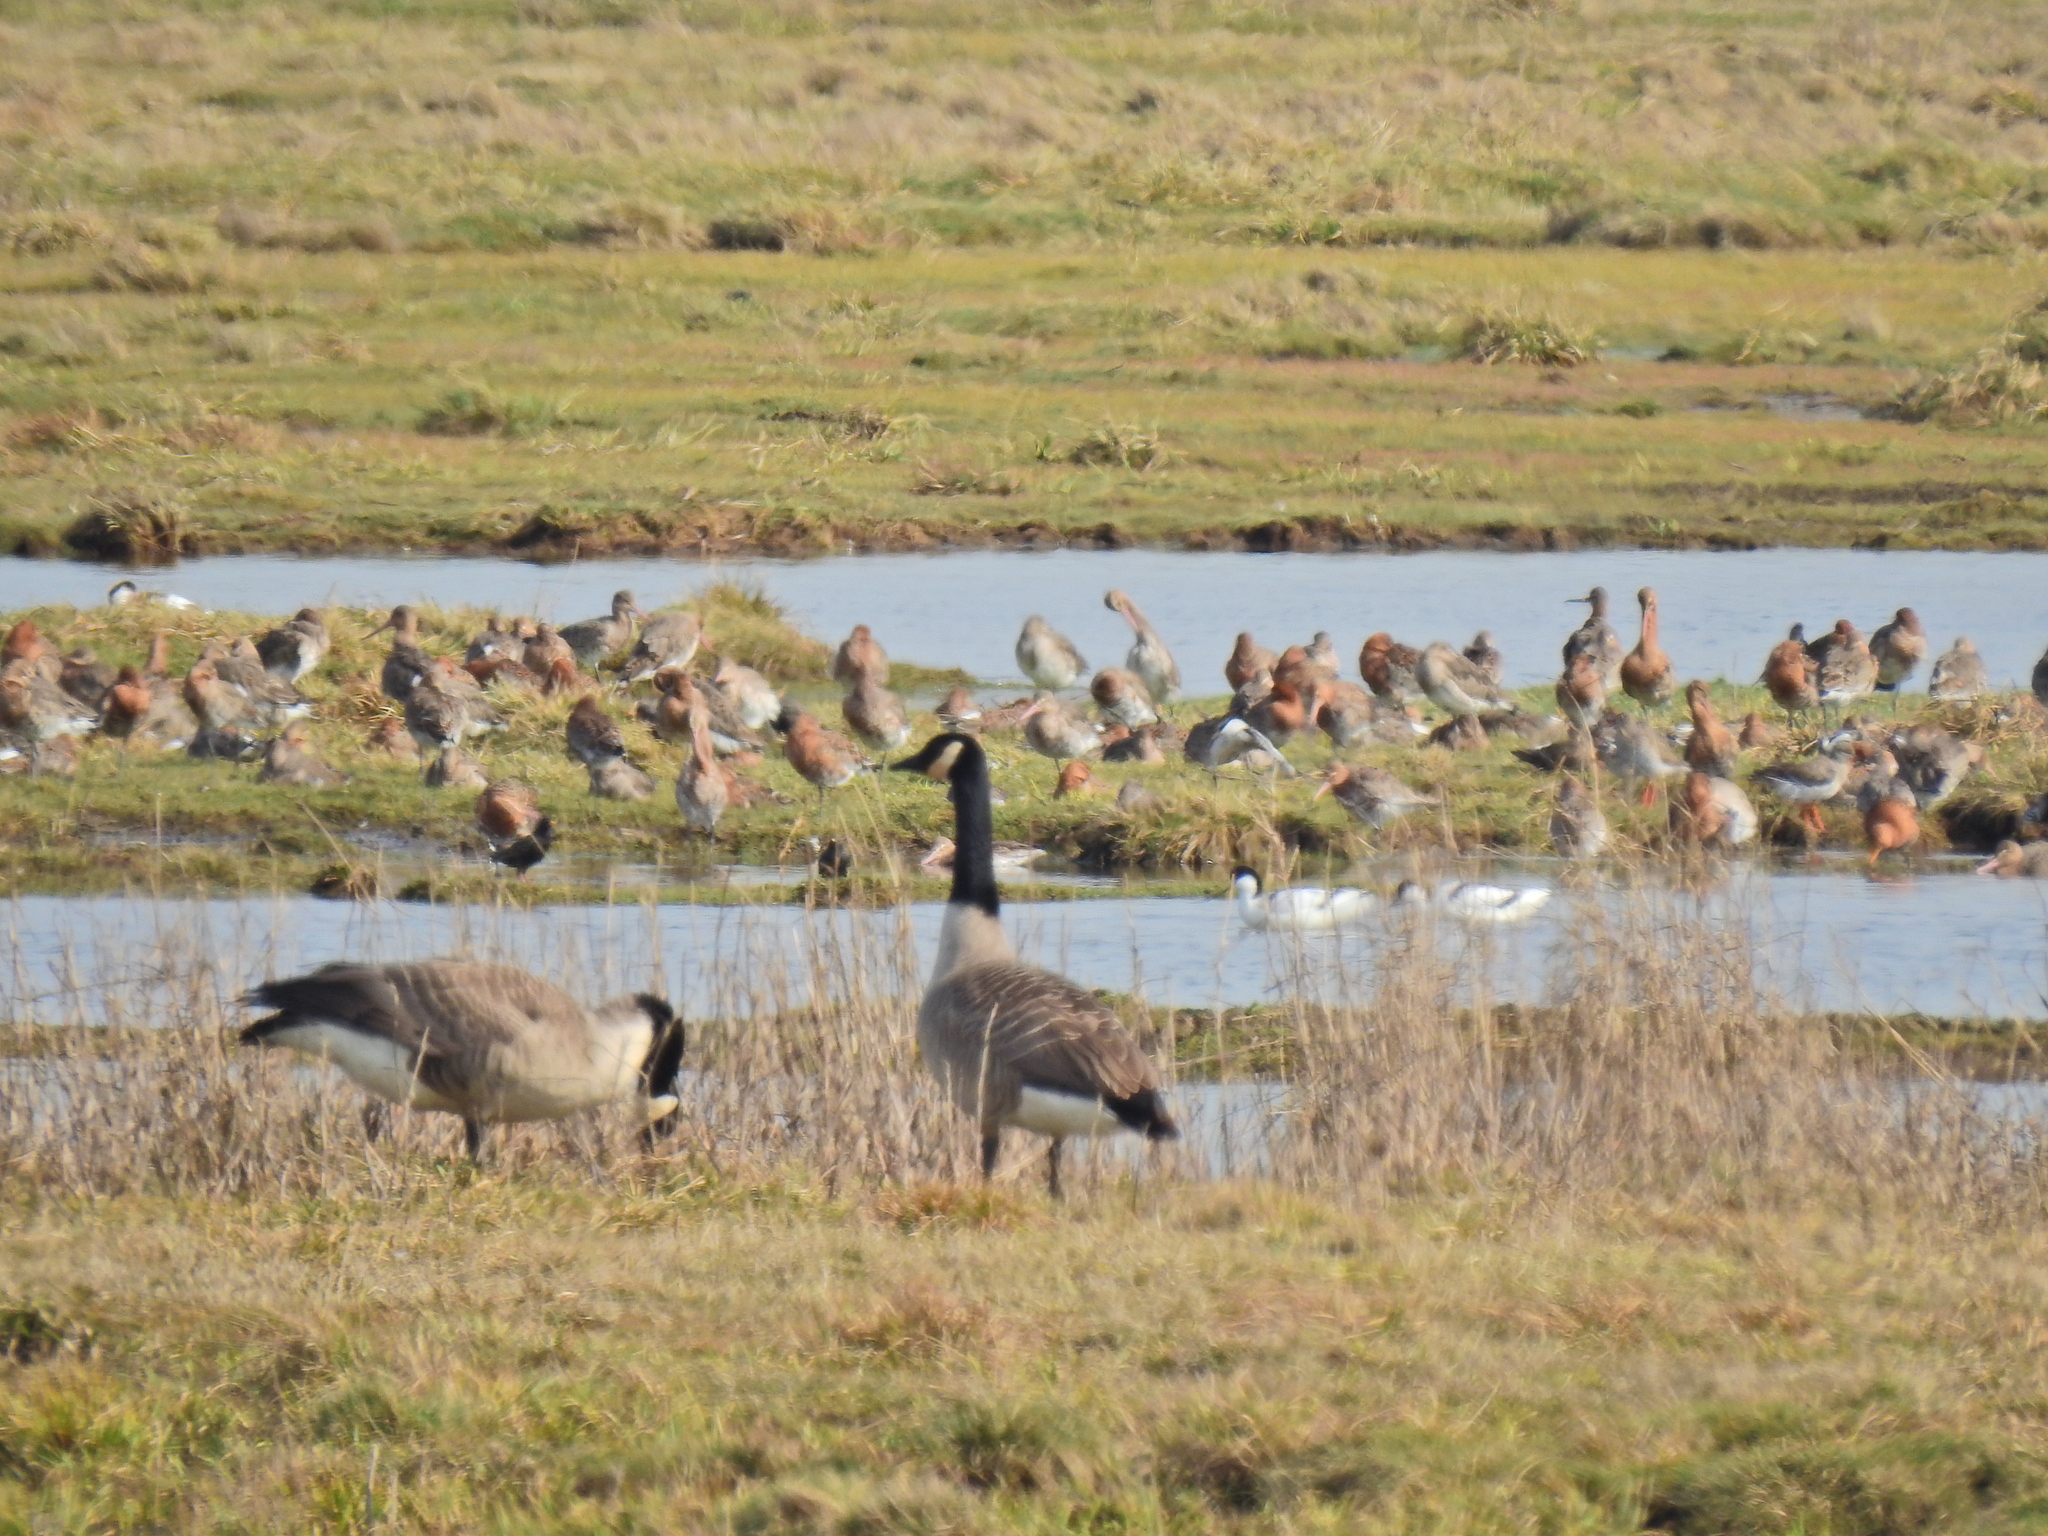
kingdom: Animalia
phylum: Chordata
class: Aves
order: Anseriformes
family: Anatidae
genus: Branta
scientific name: Branta canadensis
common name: Canada goose
